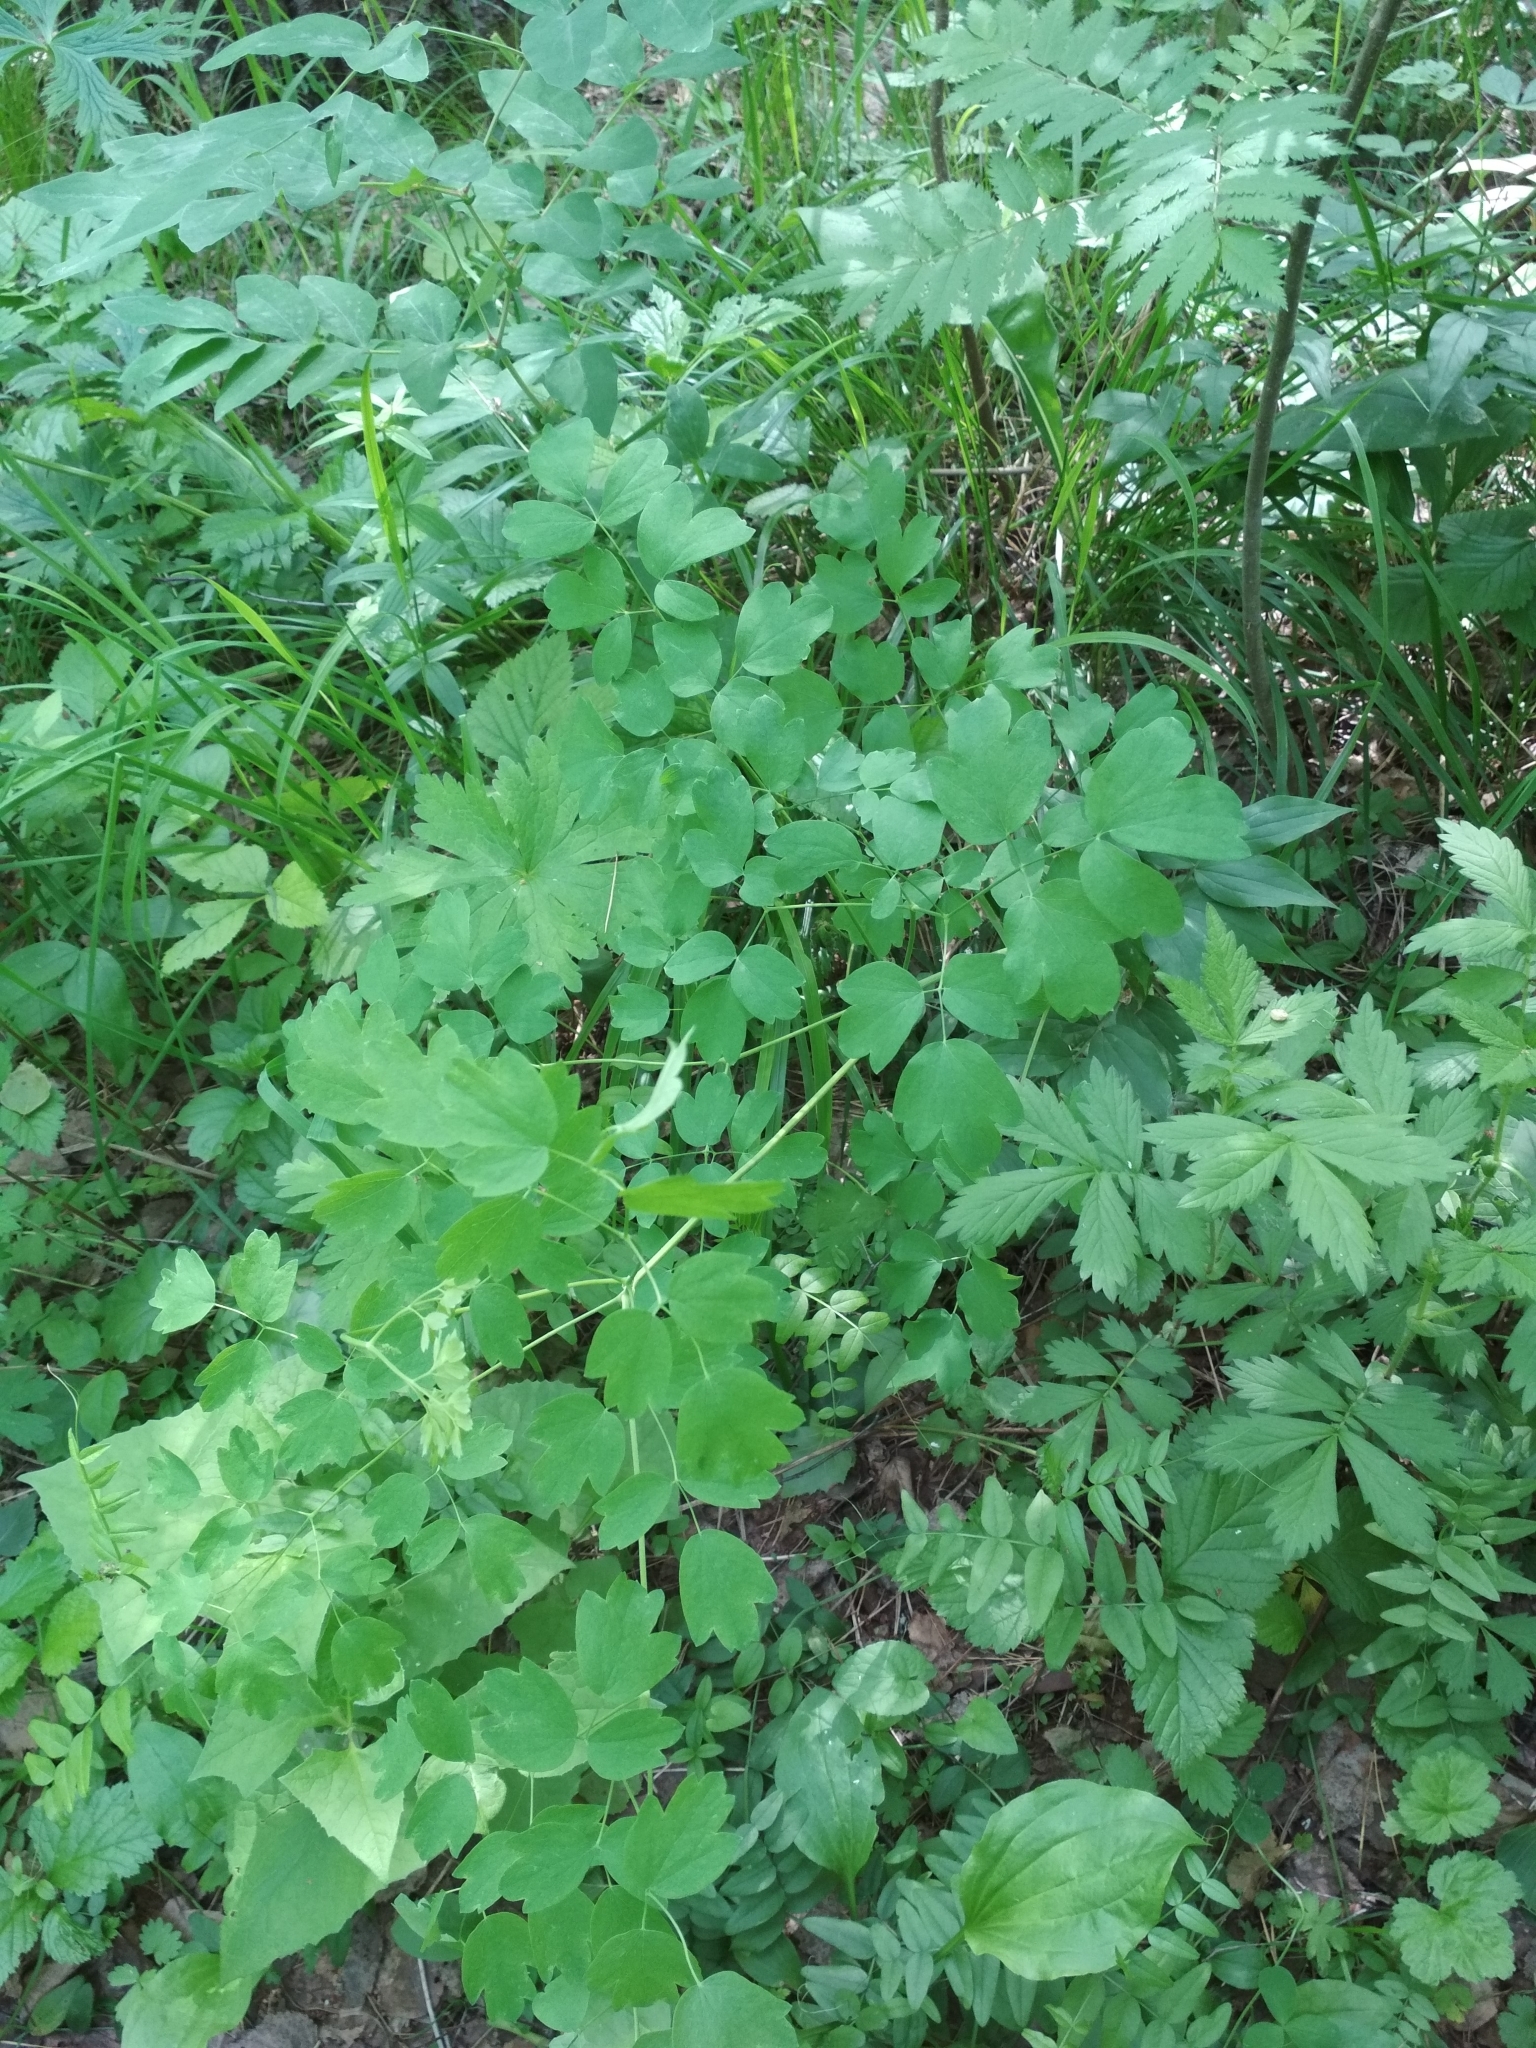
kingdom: Plantae
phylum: Tracheophyta
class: Magnoliopsida
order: Ranunculales
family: Ranunculaceae
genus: Thalictrum
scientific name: Thalictrum minus
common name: Lesser meadow-rue
